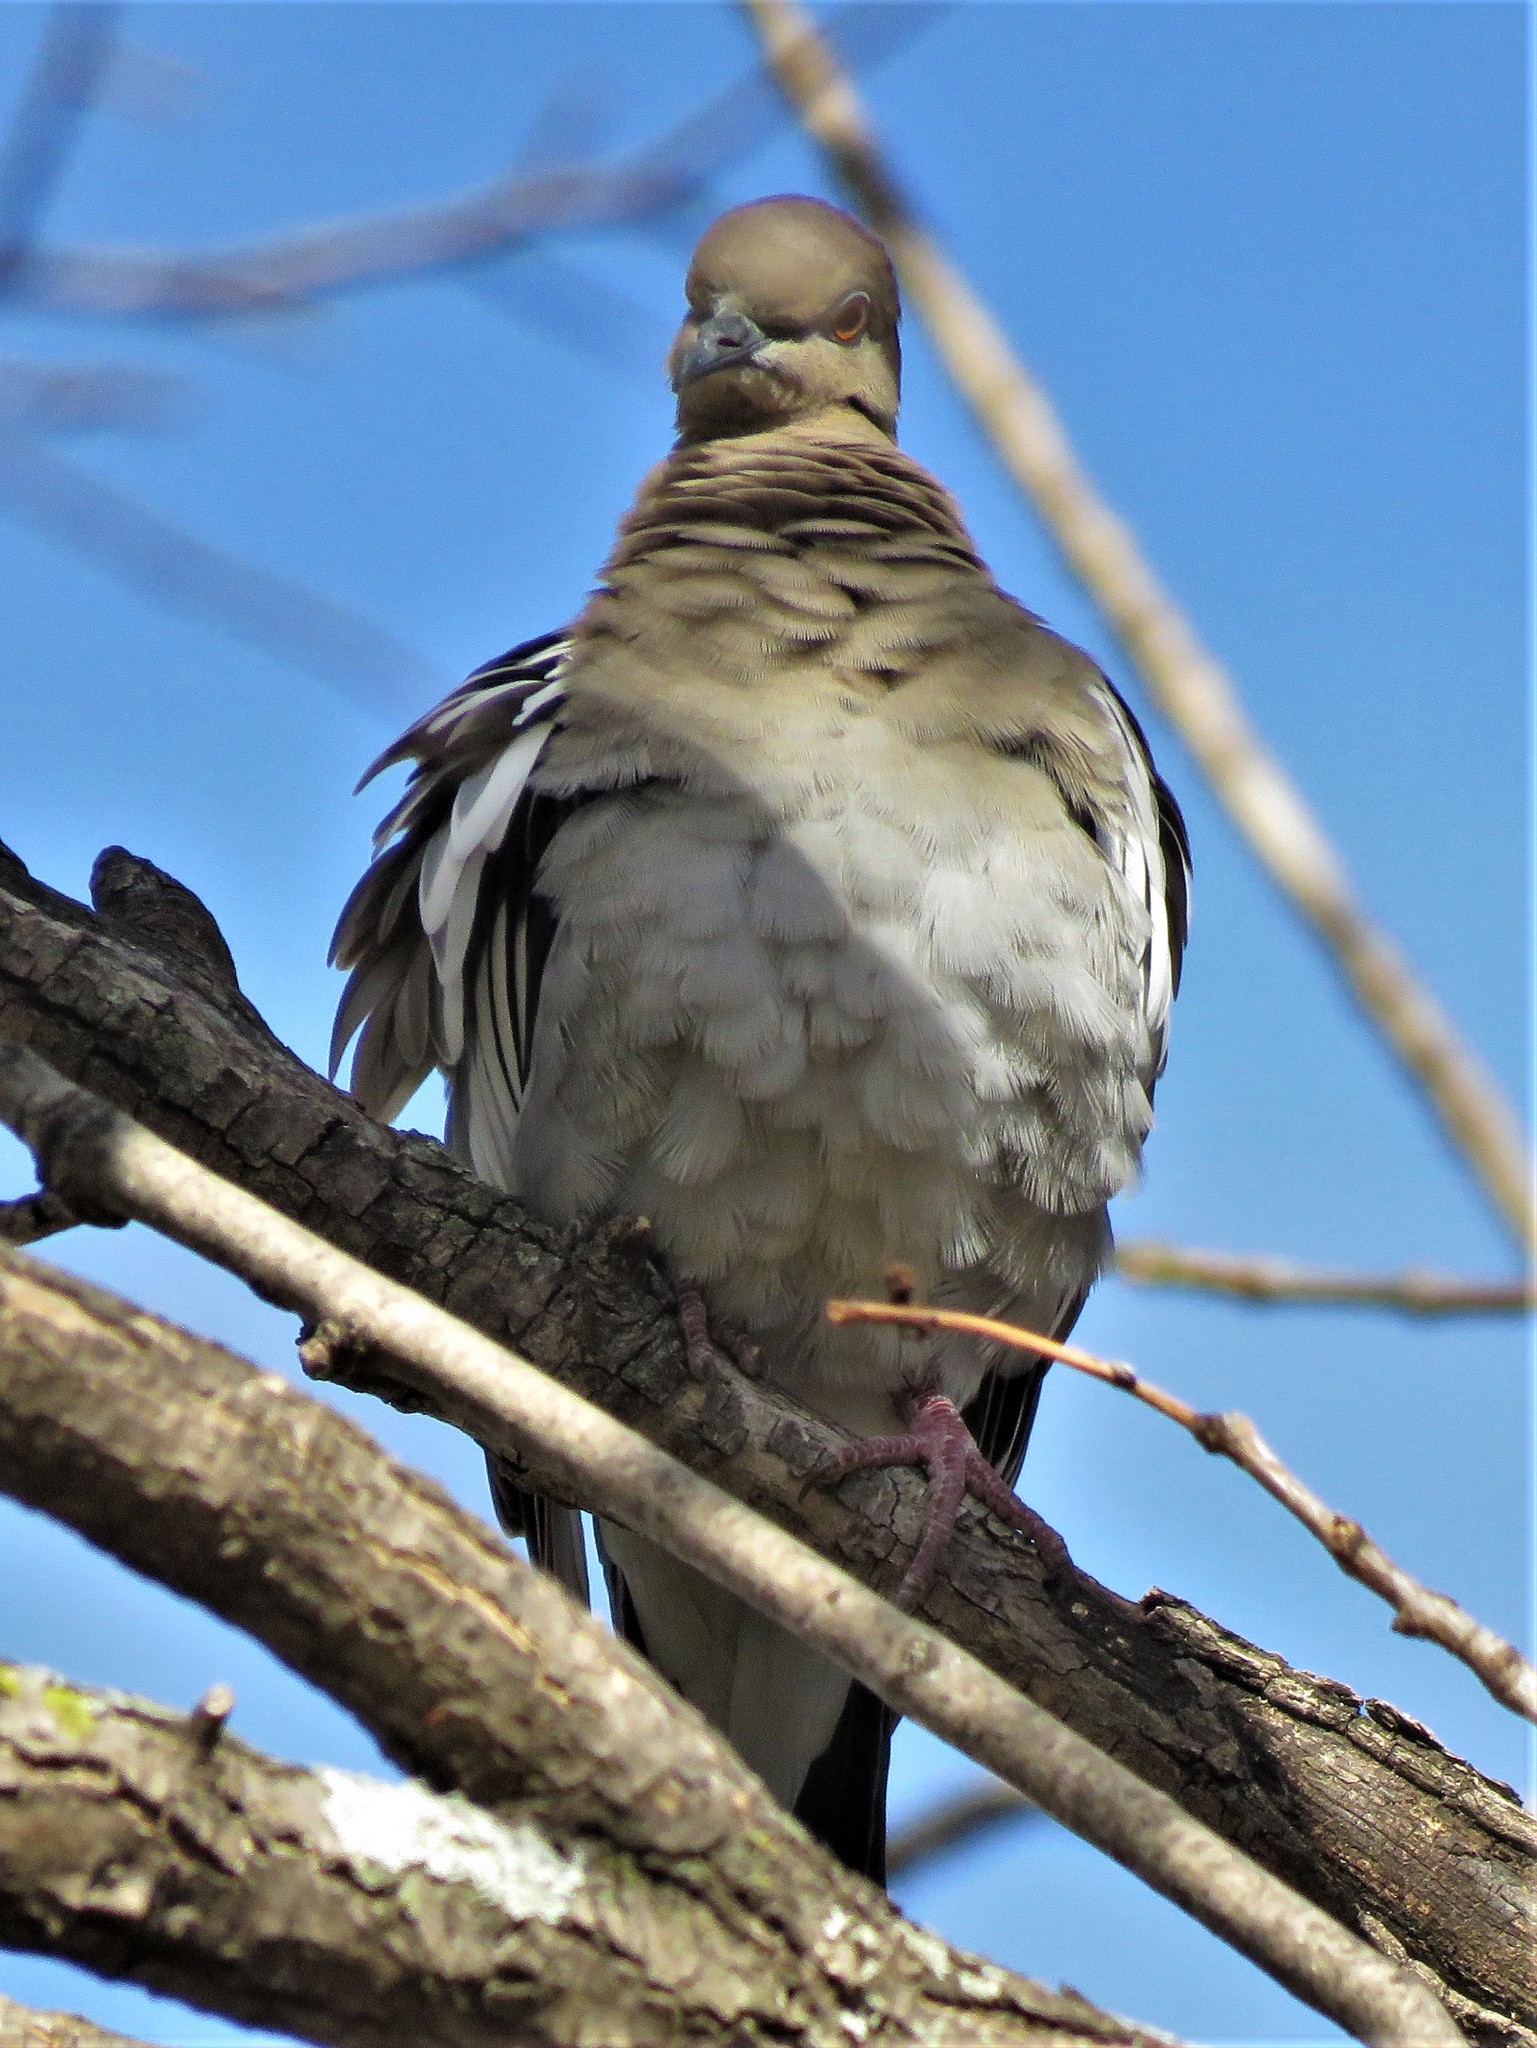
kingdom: Animalia
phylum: Chordata
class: Aves
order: Columbiformes
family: Columbidae
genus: Zenaida
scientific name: Zenaida asiatica
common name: White-winged dove
